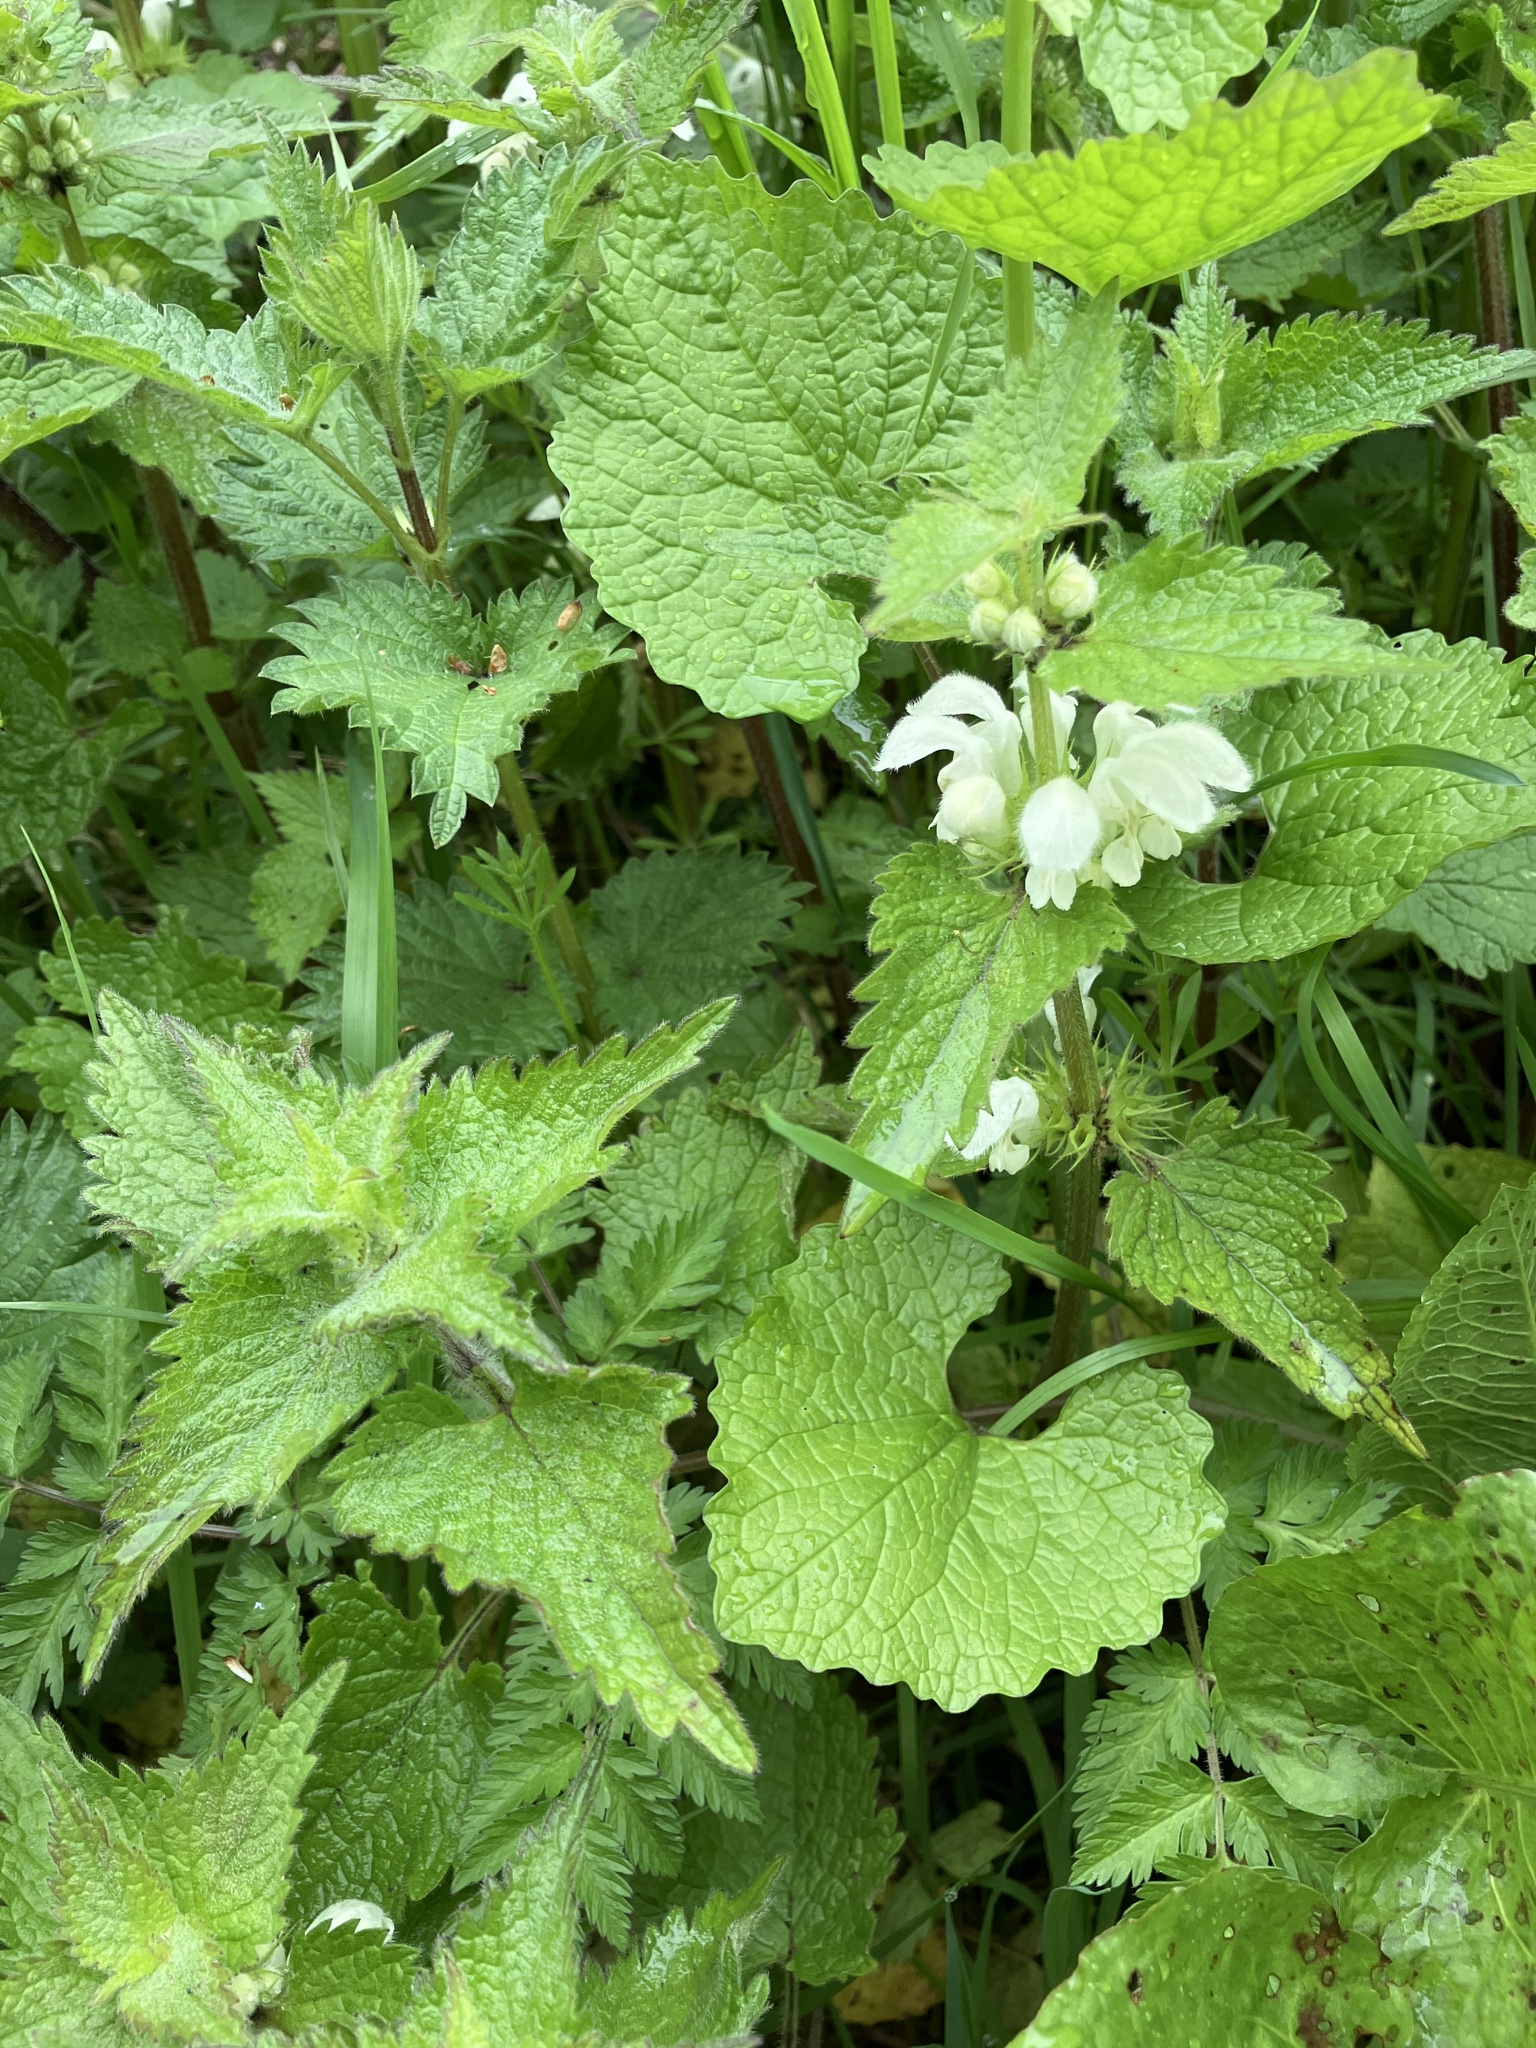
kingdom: Plantae
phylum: Tracheophyta
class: Magnoliopsida
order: Lamiales
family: Lamiaceae
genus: Lamium
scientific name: Lamium album
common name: White dead-nettle
